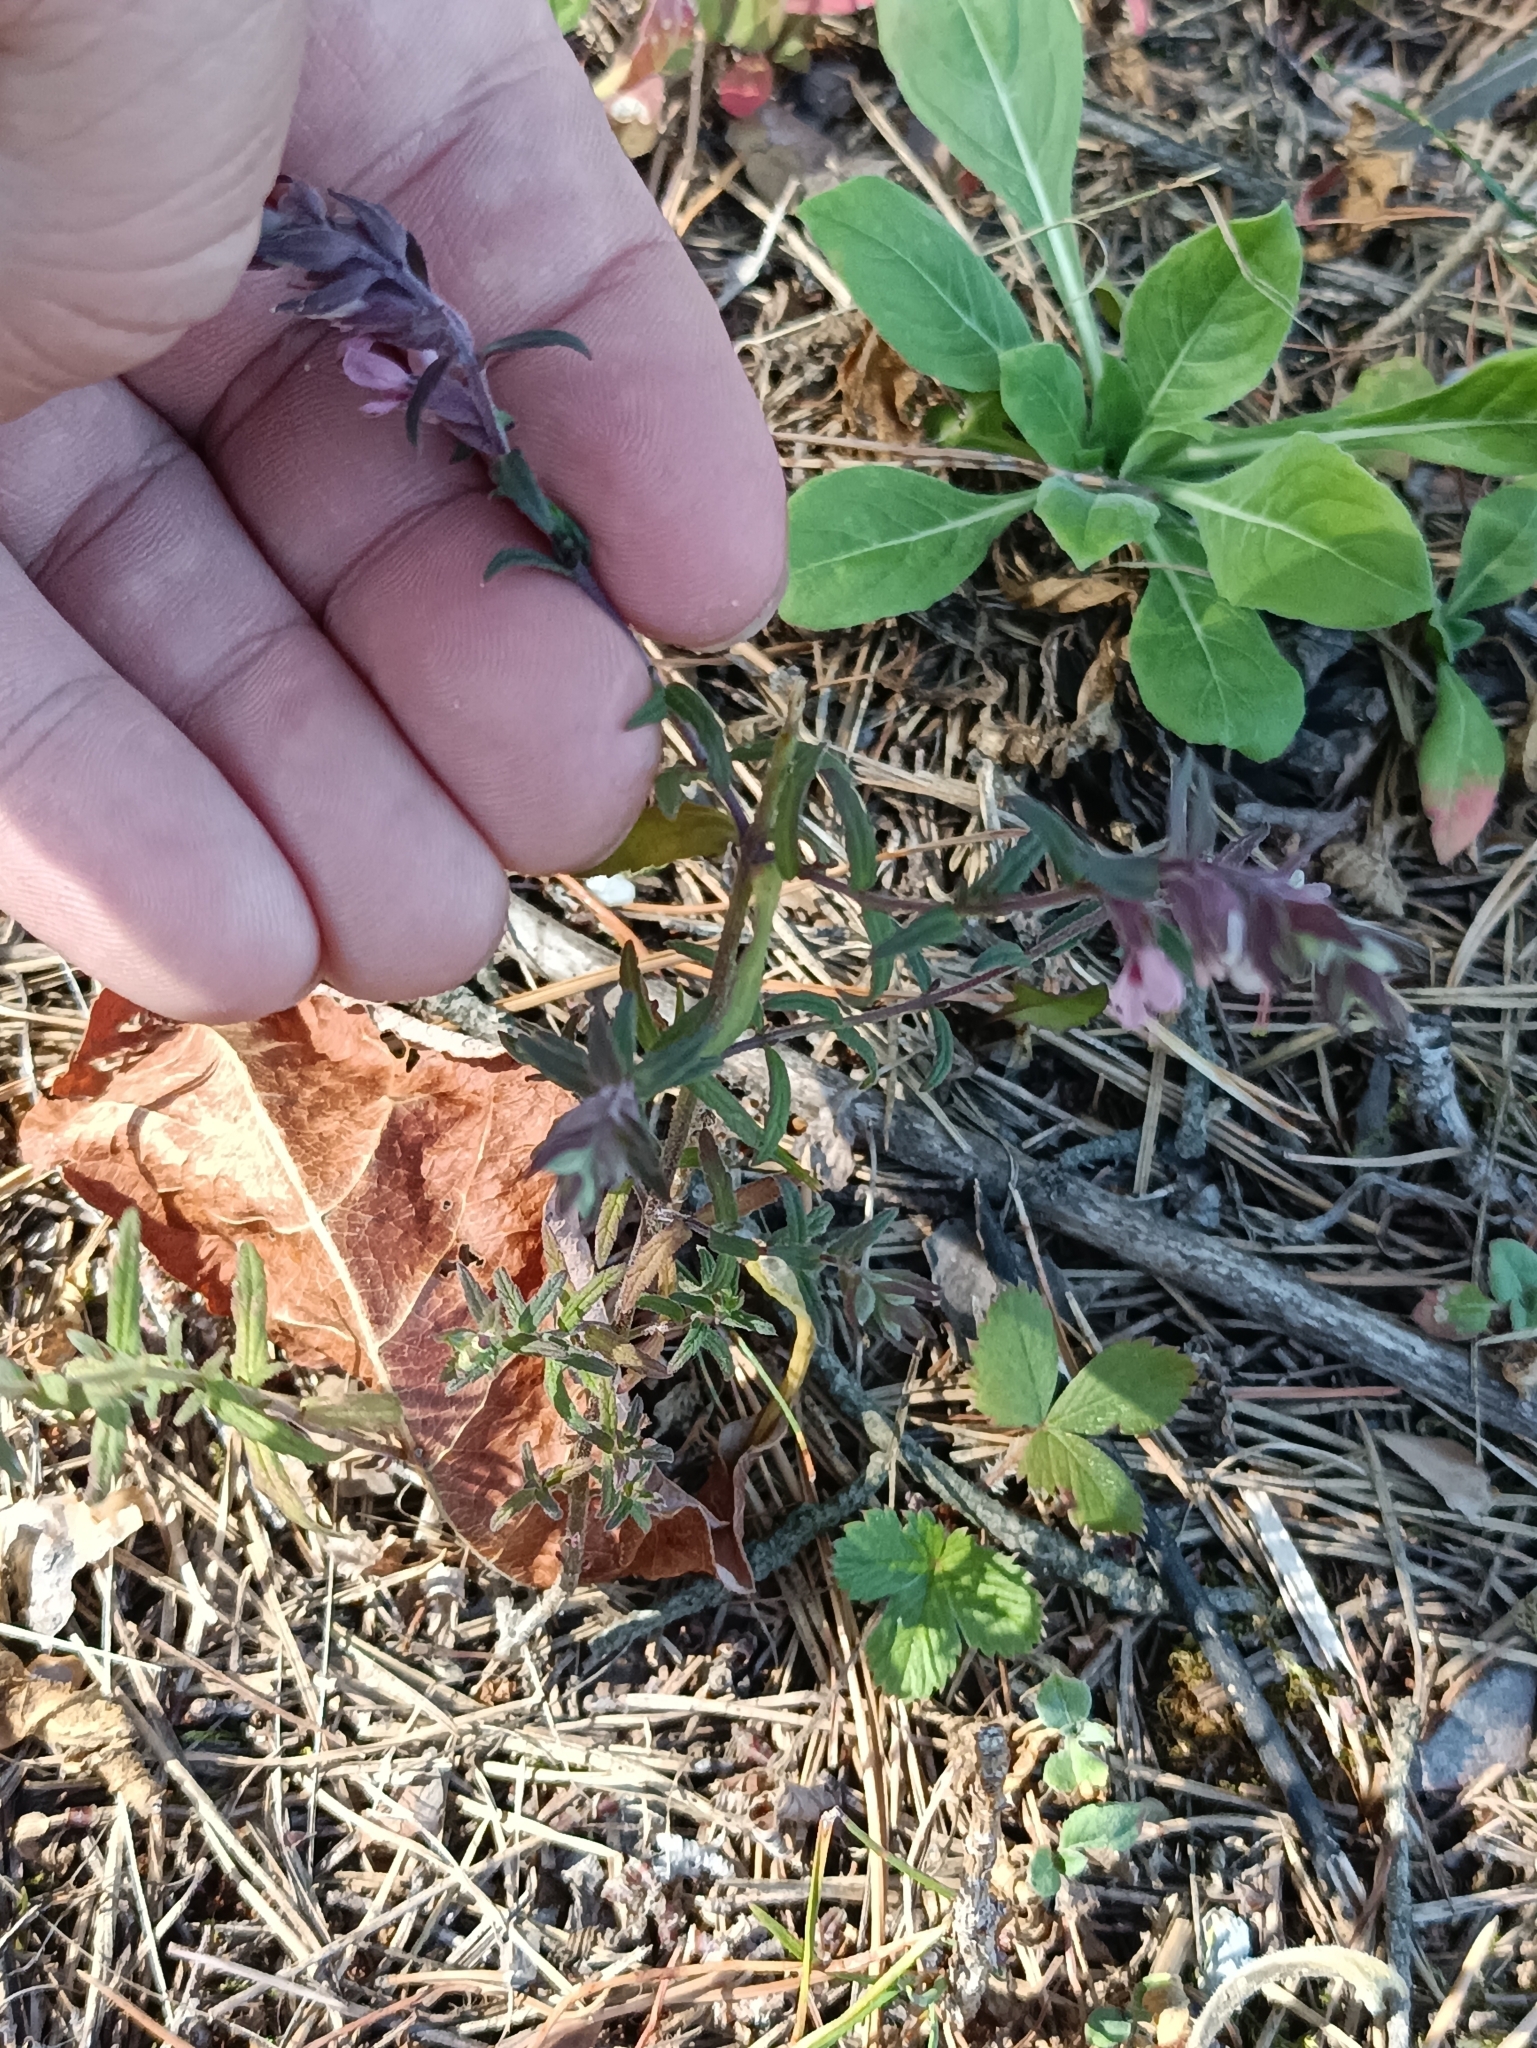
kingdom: Plantae
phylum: Tracheophyta
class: Magnoliopsida
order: Lamiales
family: Orobanchaceae
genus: Odontites
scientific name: Odontites vulgaris
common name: Broomrape
